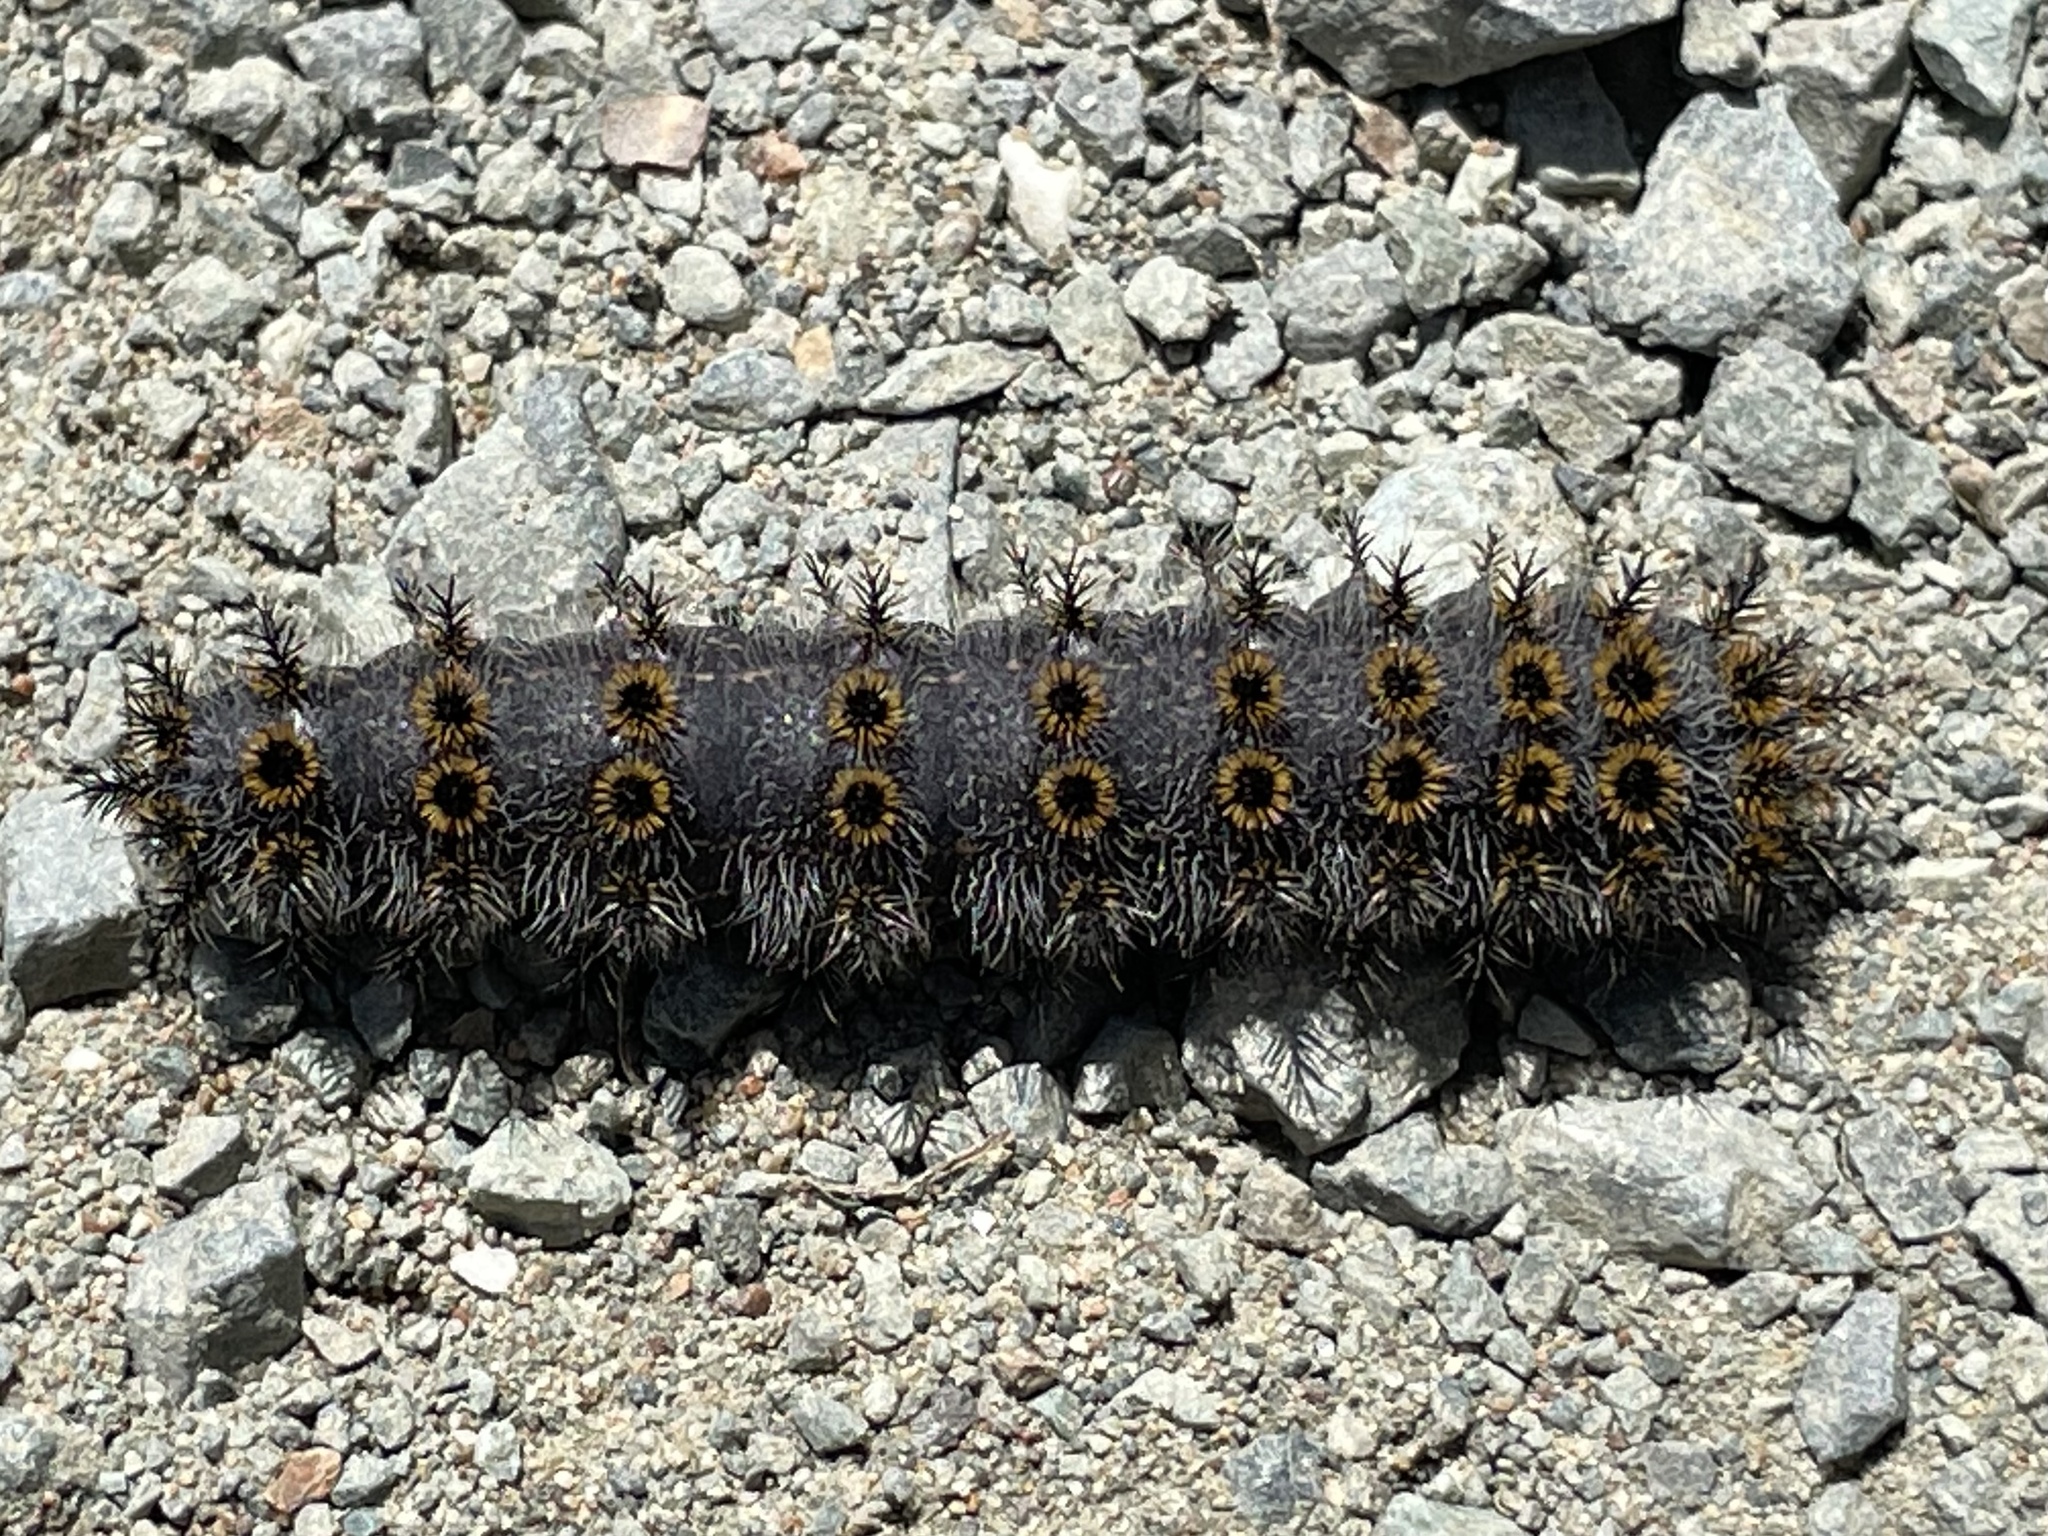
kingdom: Animalia
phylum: Arthropoda
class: Insecta
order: Lepidoptera
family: Saturniidae
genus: Hemileuca
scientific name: Hemileuca eglanterina
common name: Western sheepmoth
